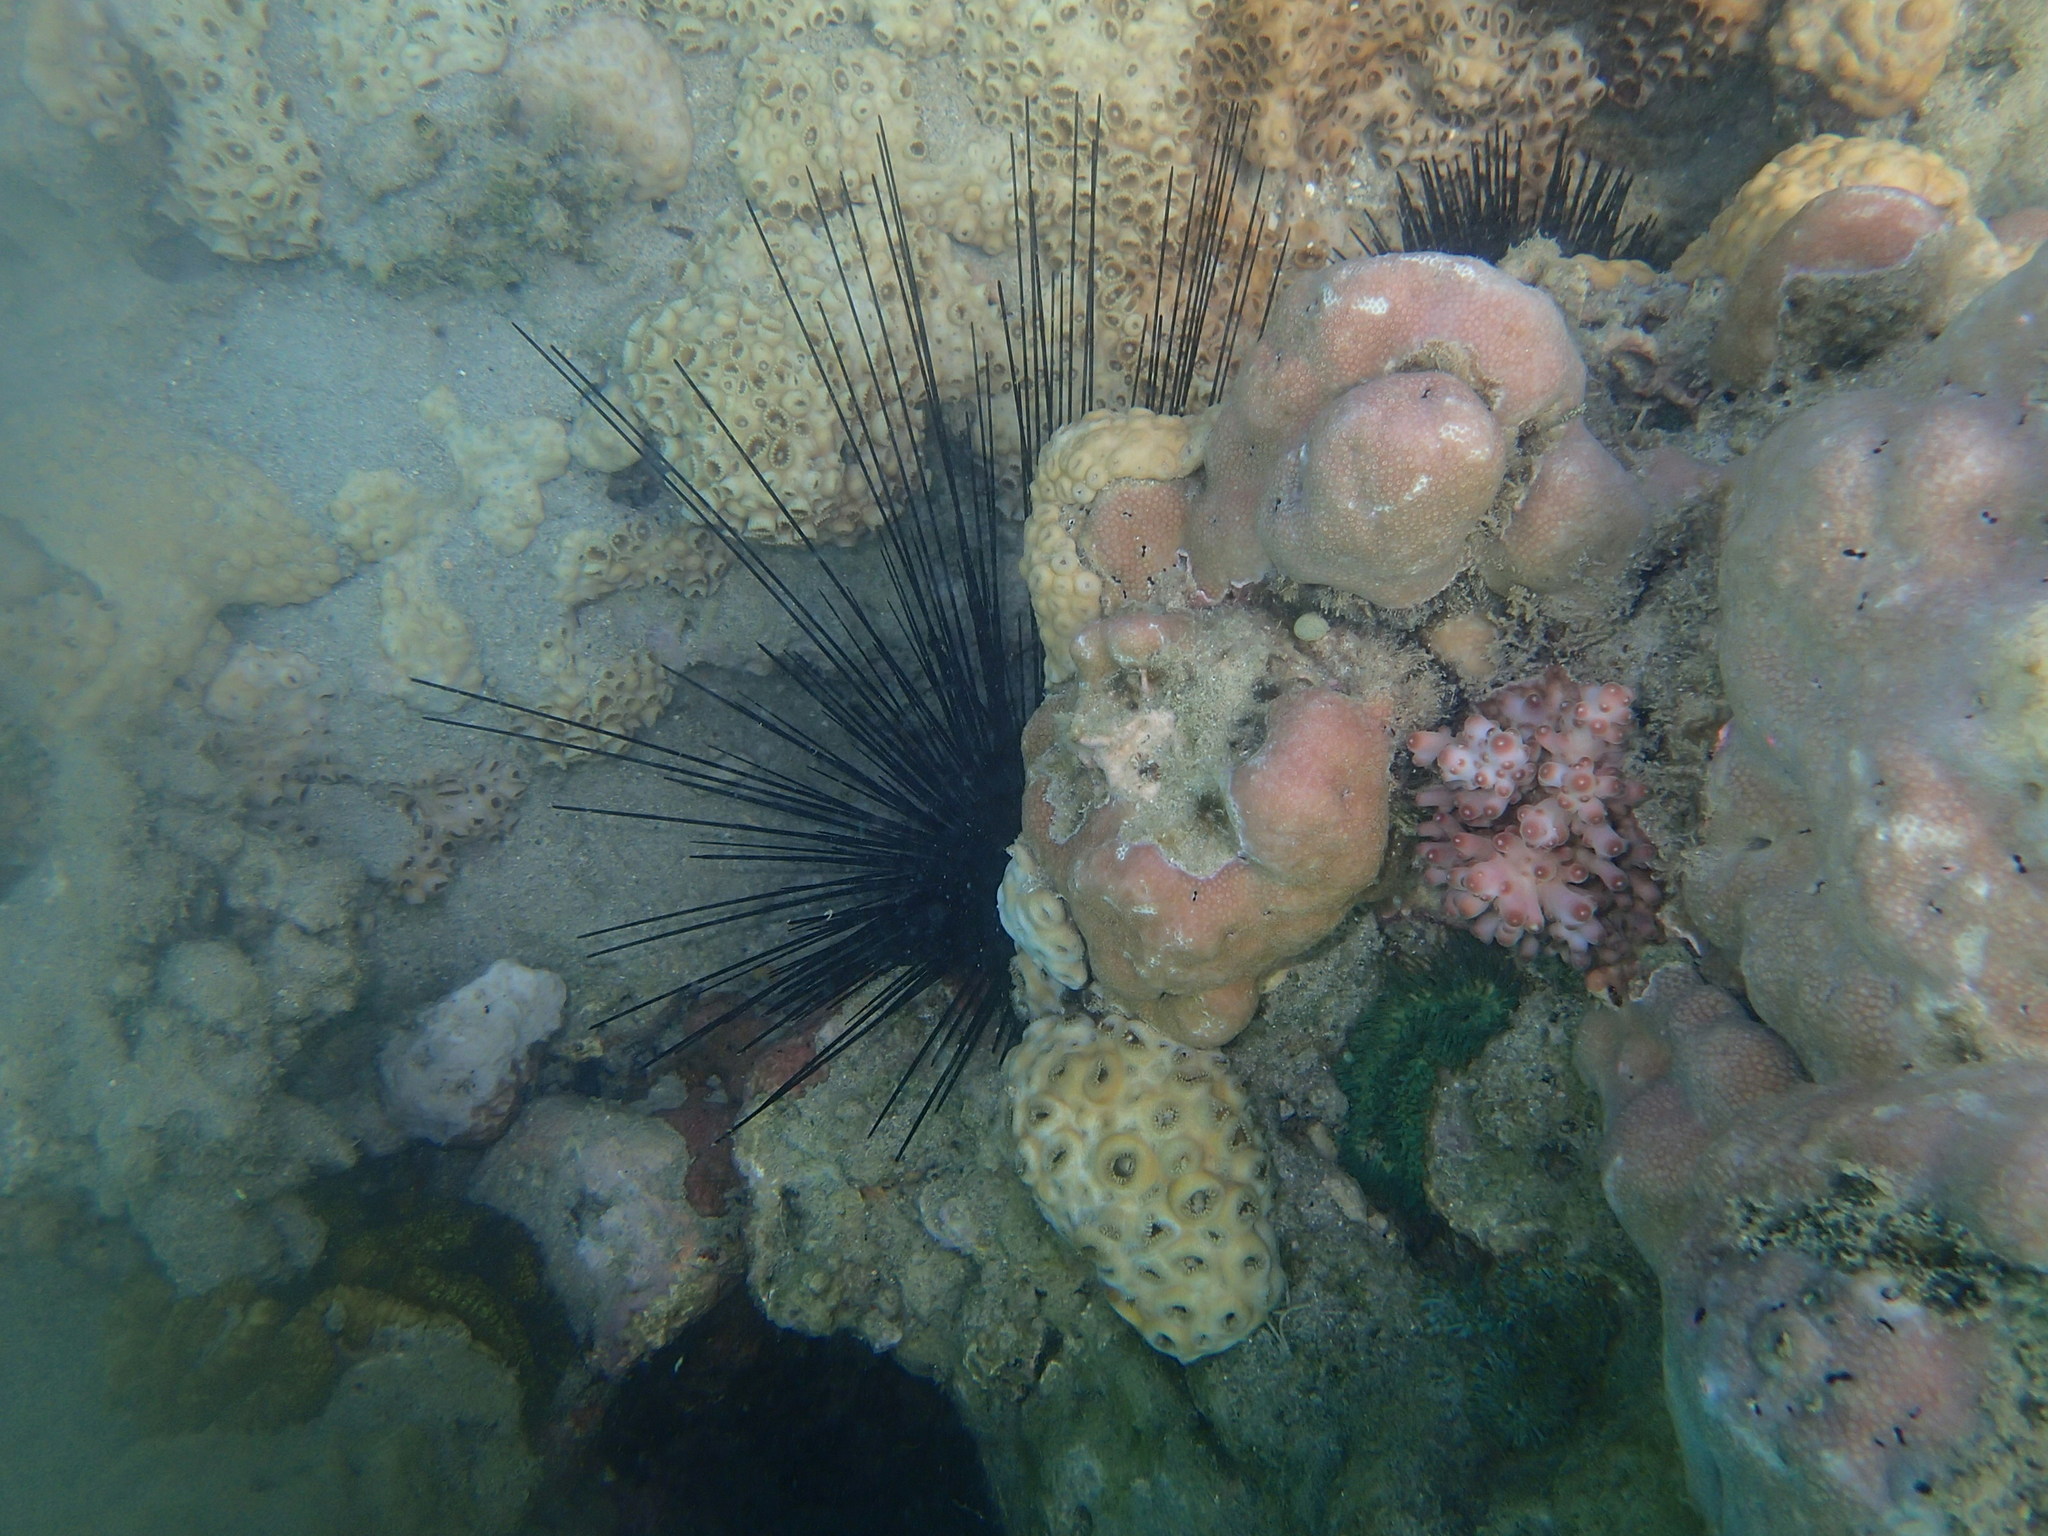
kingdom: Animalia
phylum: Echinodermata
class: Echinoidea
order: Diadematoida
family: Diadematidae
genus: Diadema
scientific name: Diadema
